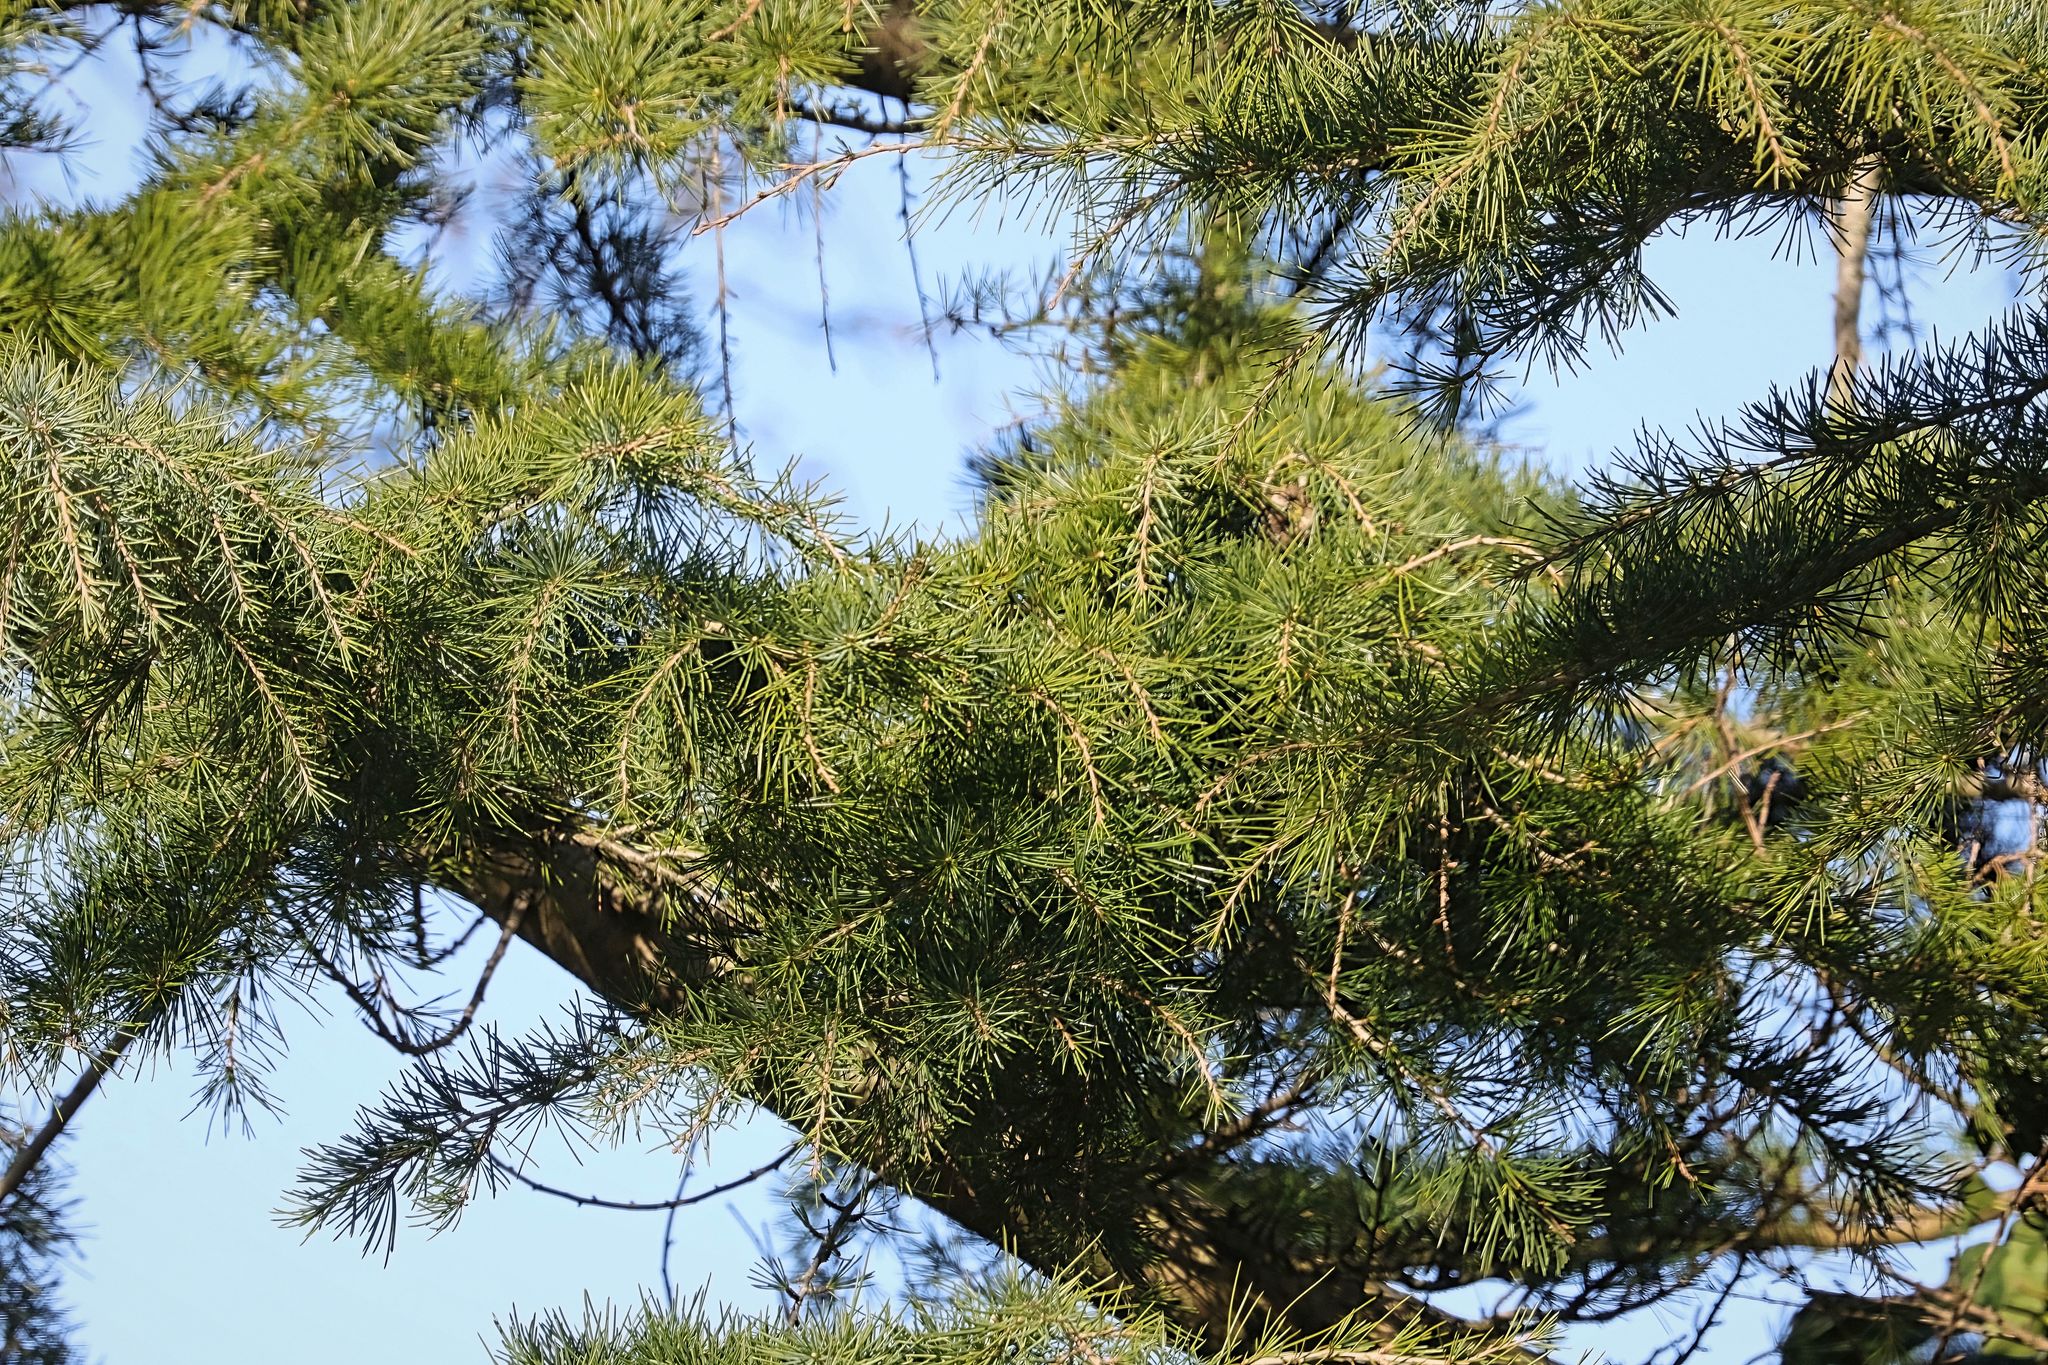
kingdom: Plantae
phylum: Tracheophyta
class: Pinopsida
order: Pinales
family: Pinaceae
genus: Cedrus
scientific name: Cedrus deodara
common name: Deodar
